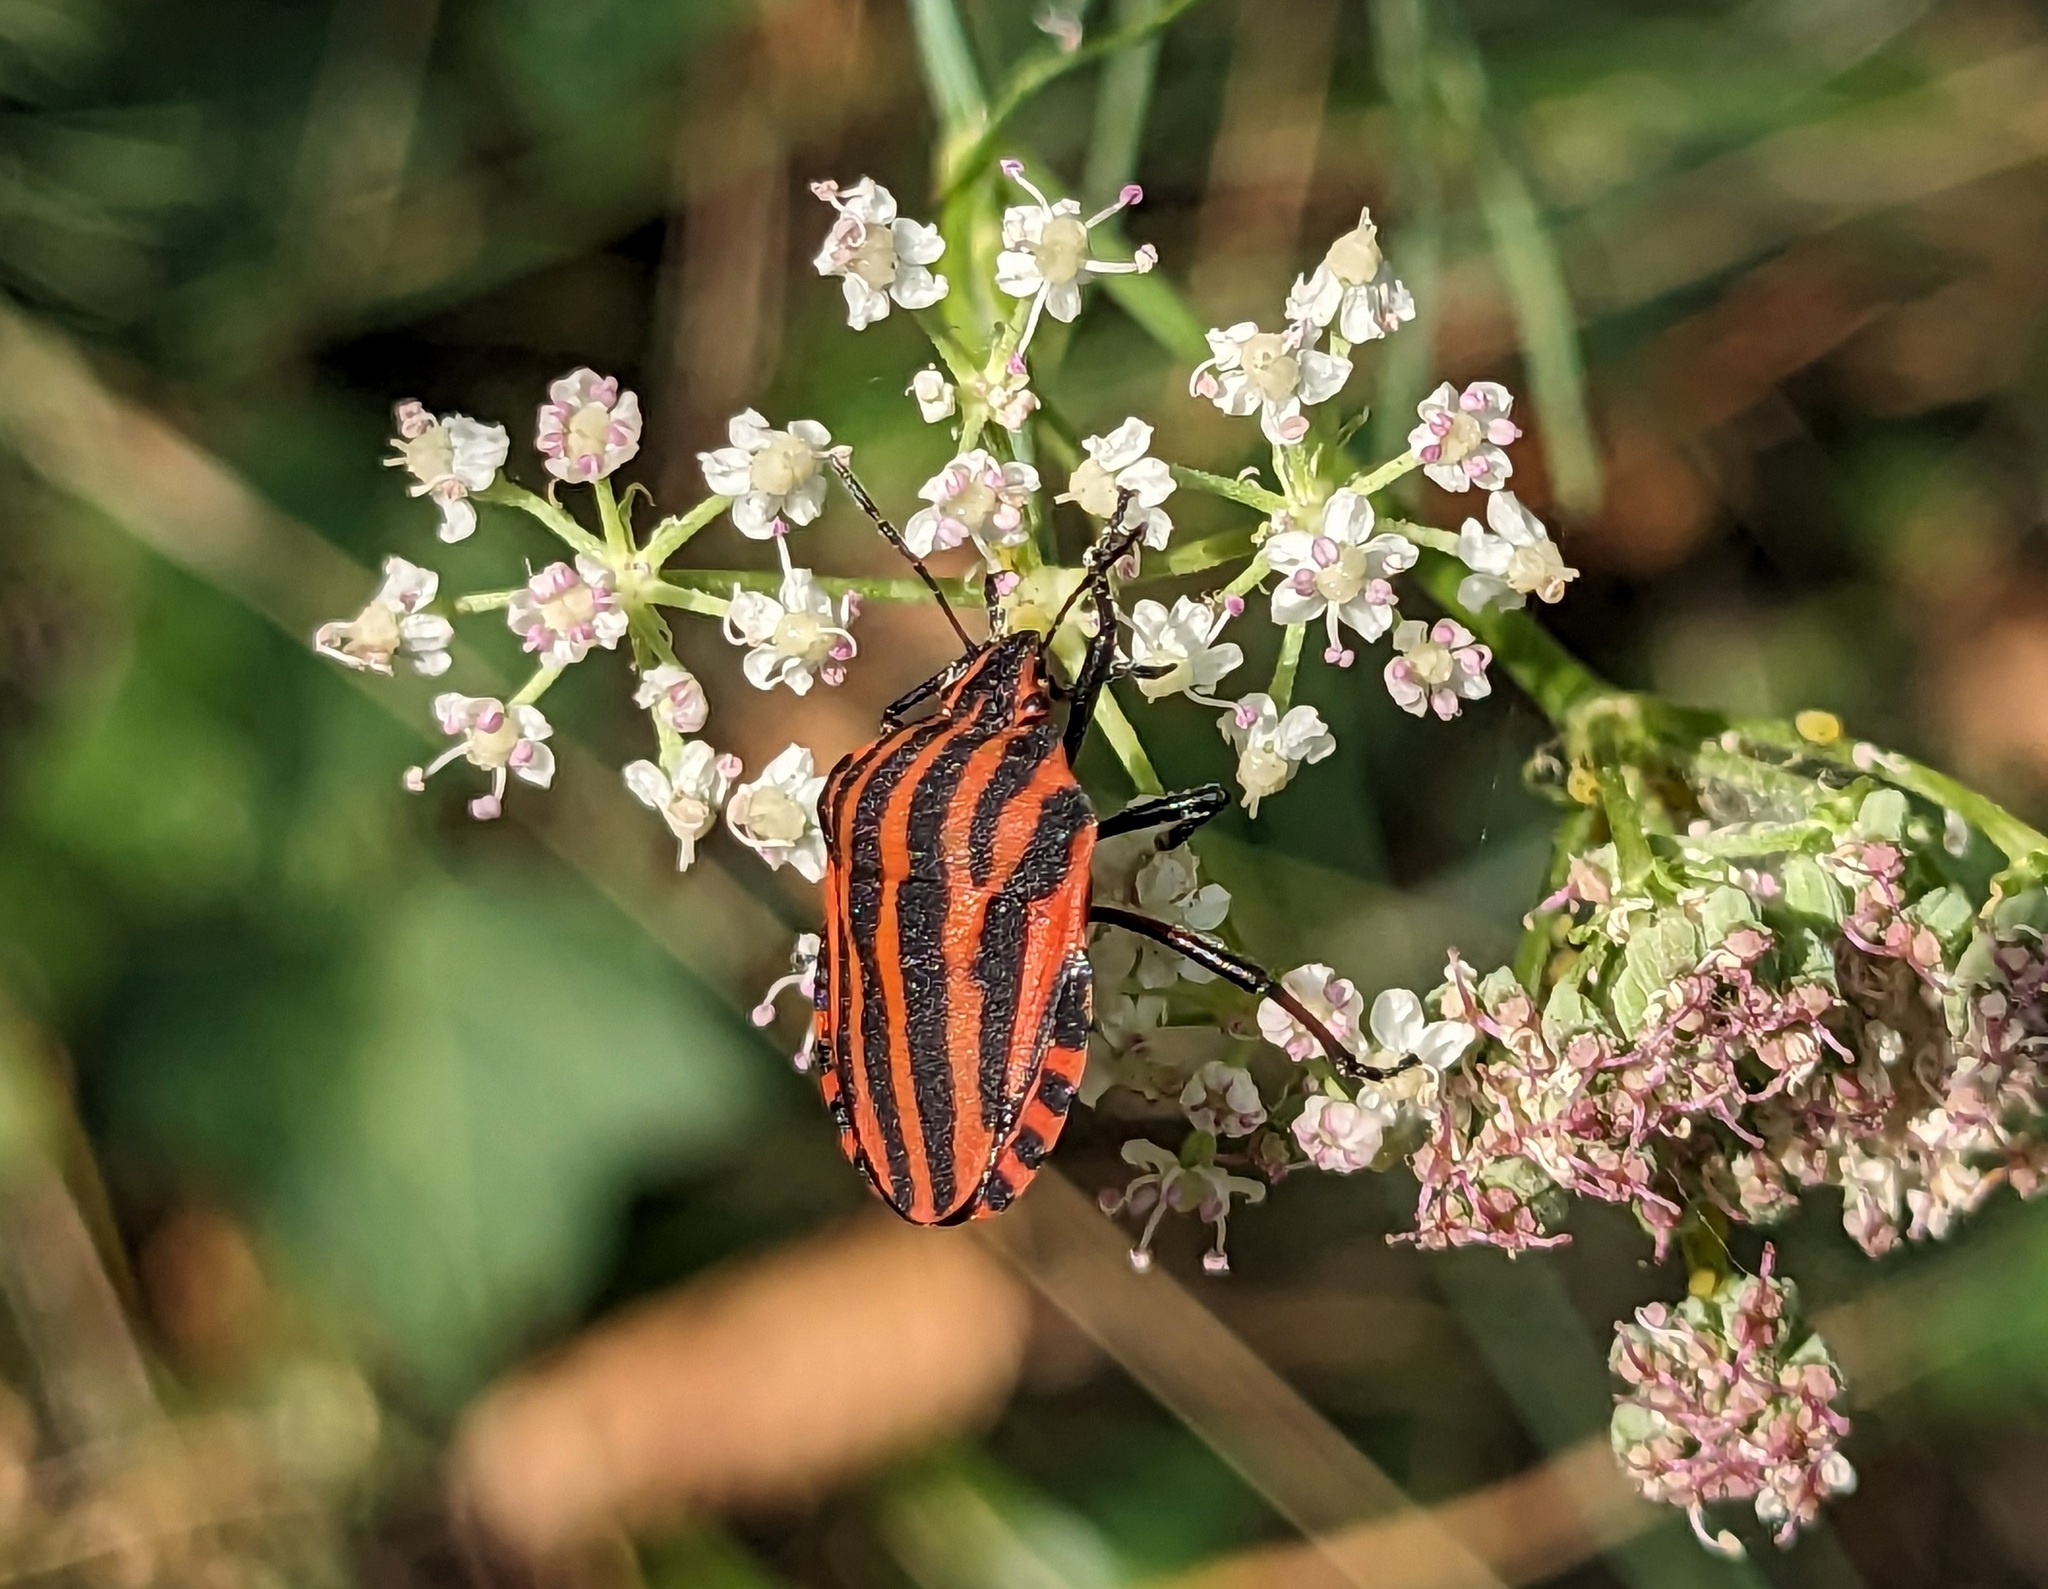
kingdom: Animalia
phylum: Arthropoda
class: Insecta
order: Hemiptera
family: Pentatomidae
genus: Graphosoma
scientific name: Graphosoma italicum
